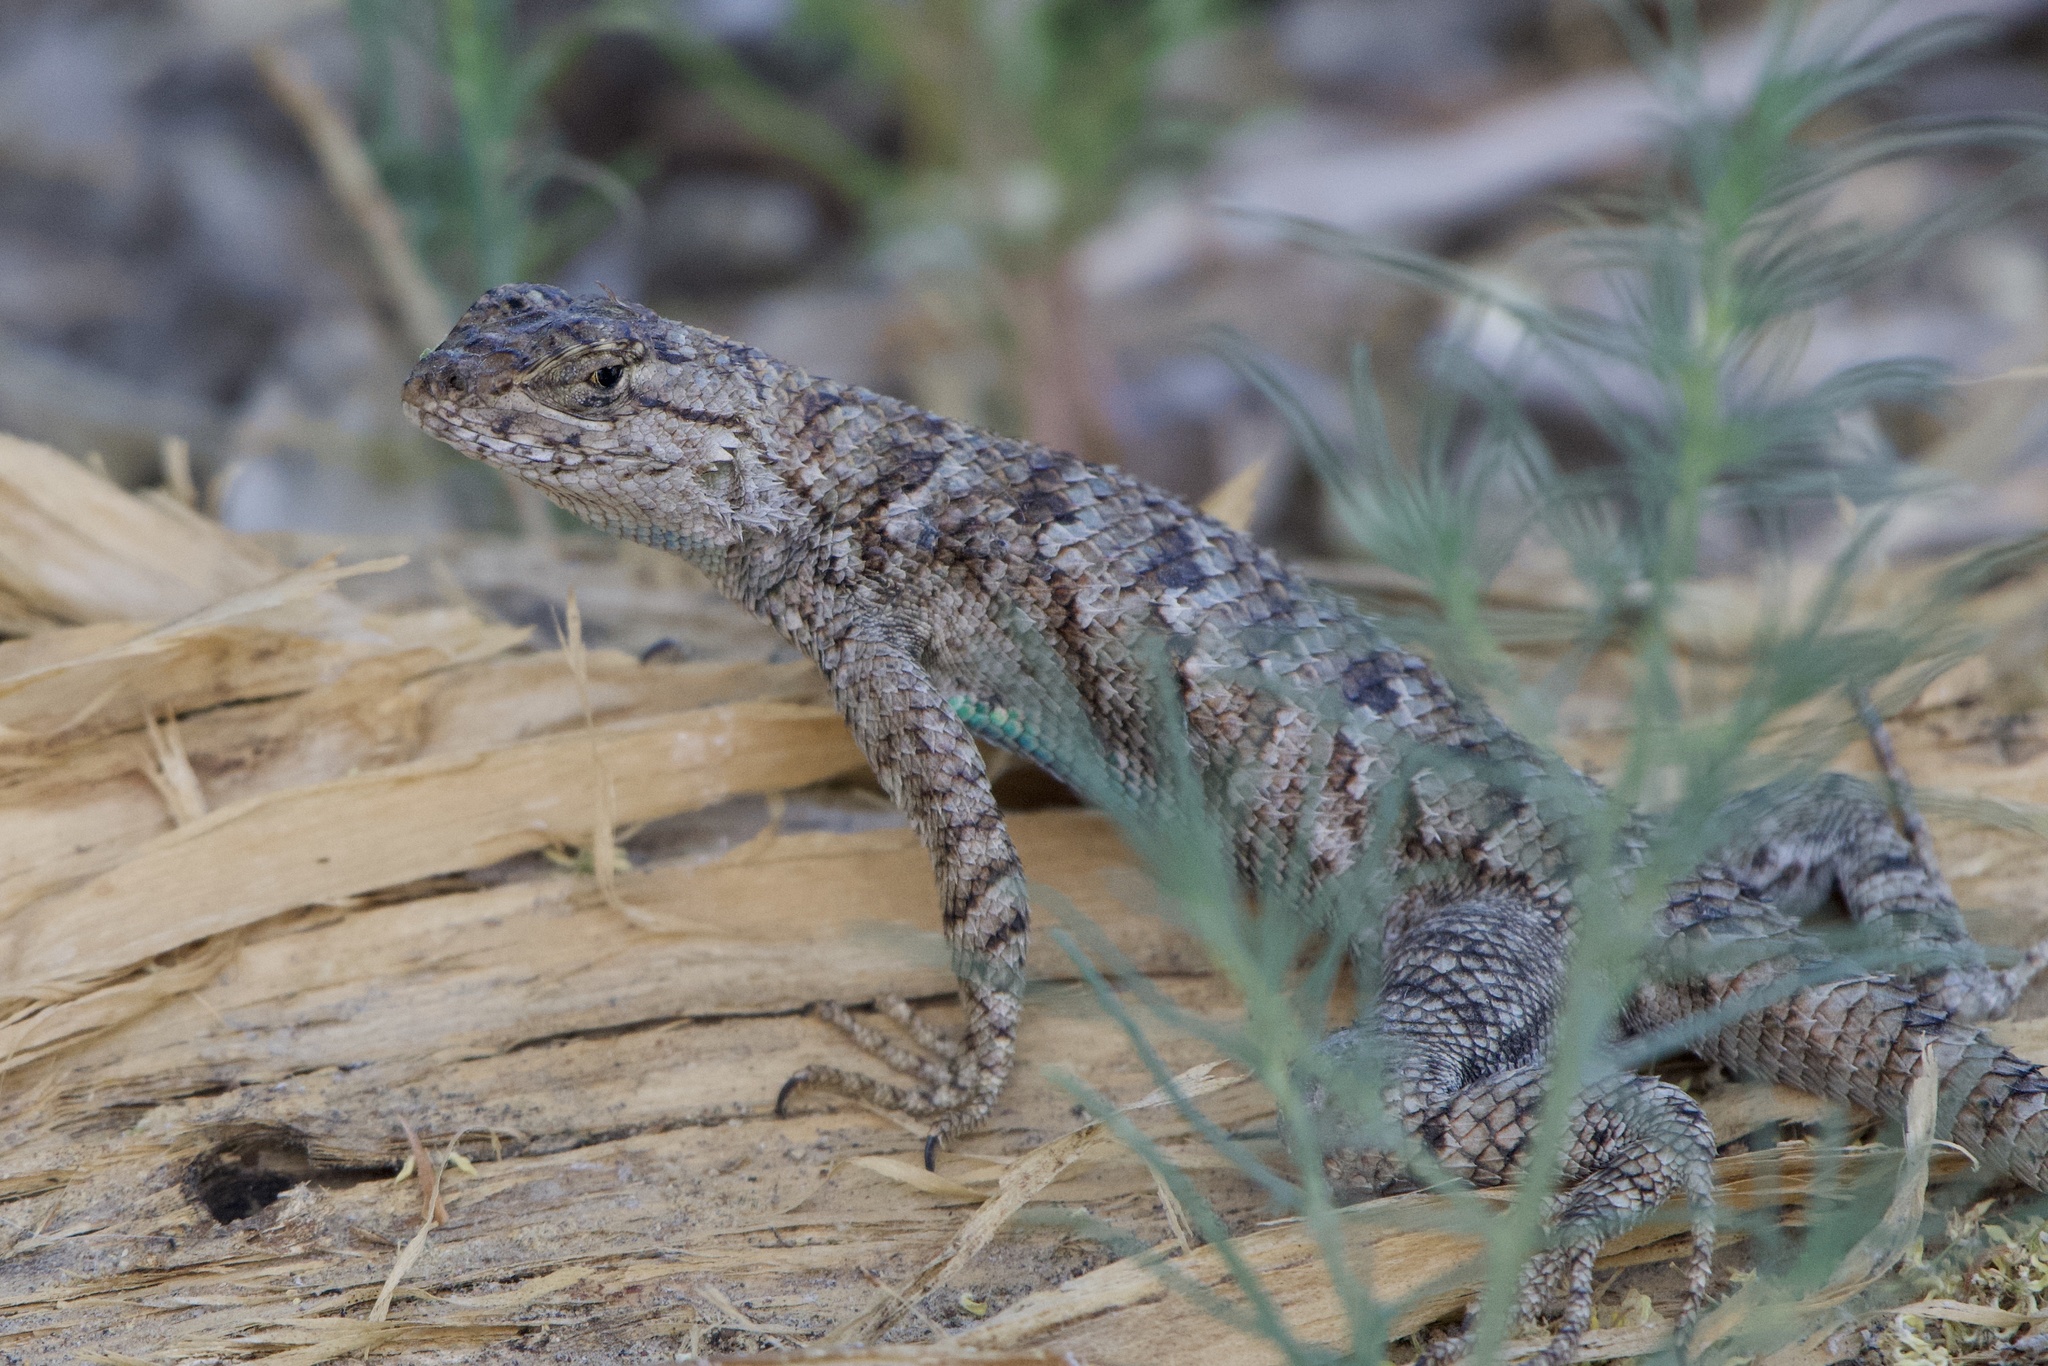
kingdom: Animalia
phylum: Chordata
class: Squamata
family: Phrynosomatidae
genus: Sceloporus
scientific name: Sceloporus occidentalis
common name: Western fence lizard
